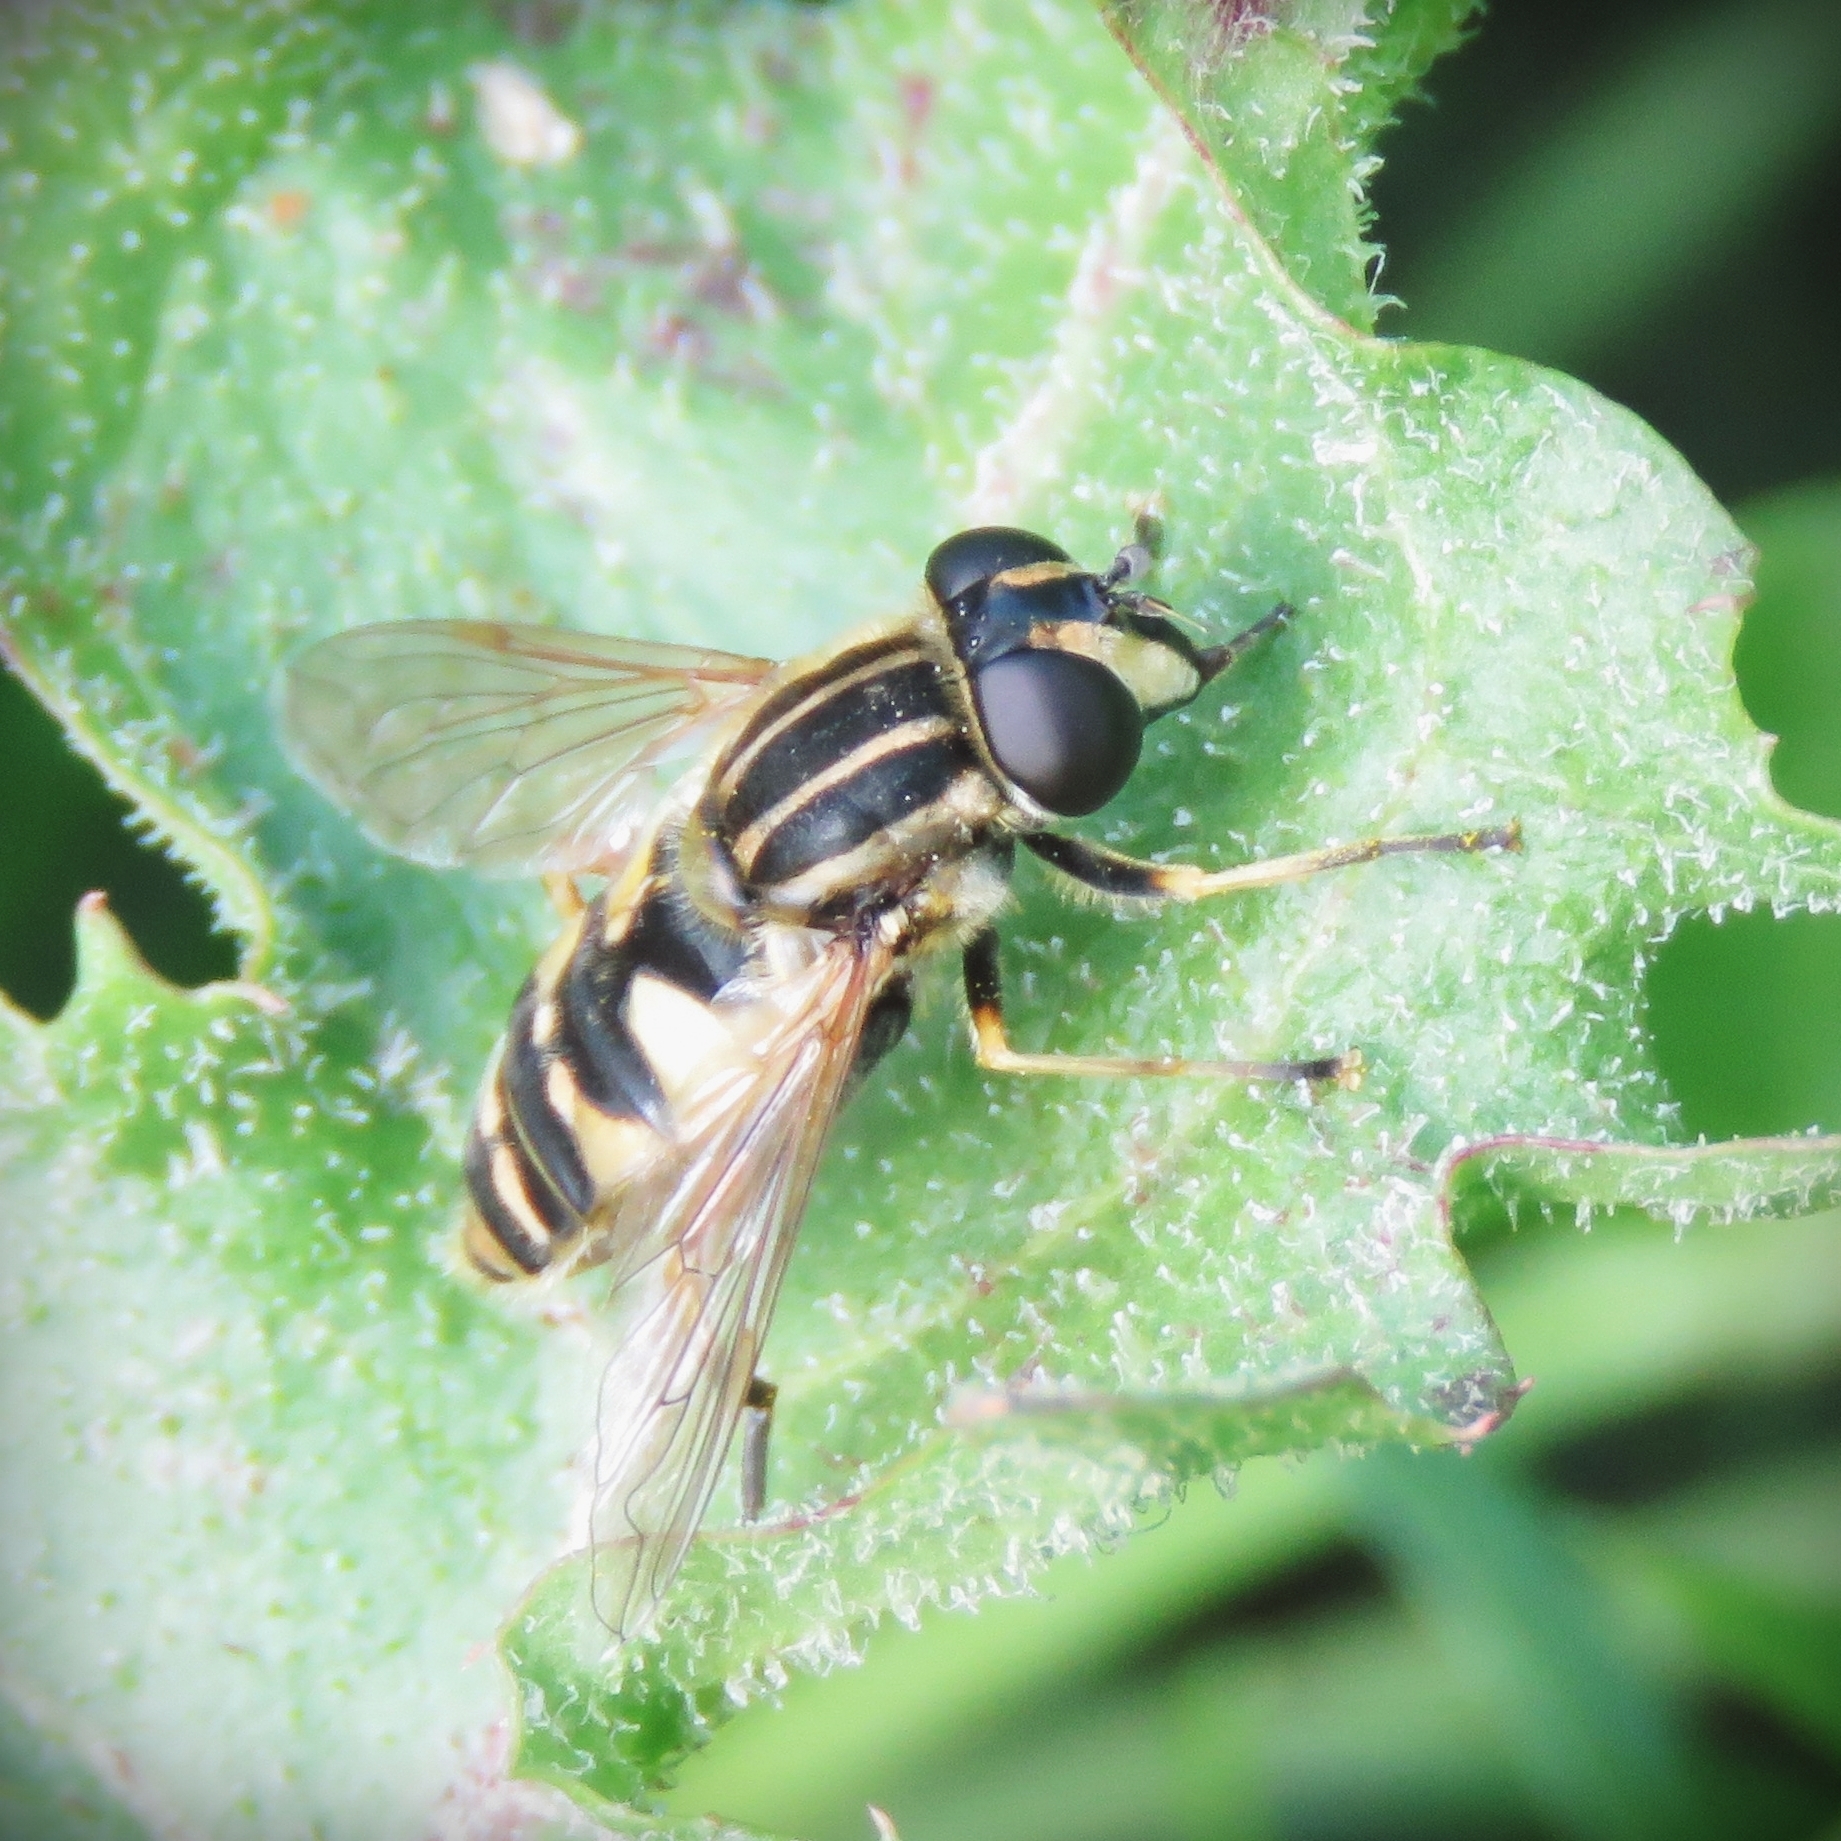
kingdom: Animalia
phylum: Arthropoda
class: Insecta
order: Diptera
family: Syrphidae
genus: Helophilus
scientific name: Helophilus pendulus
